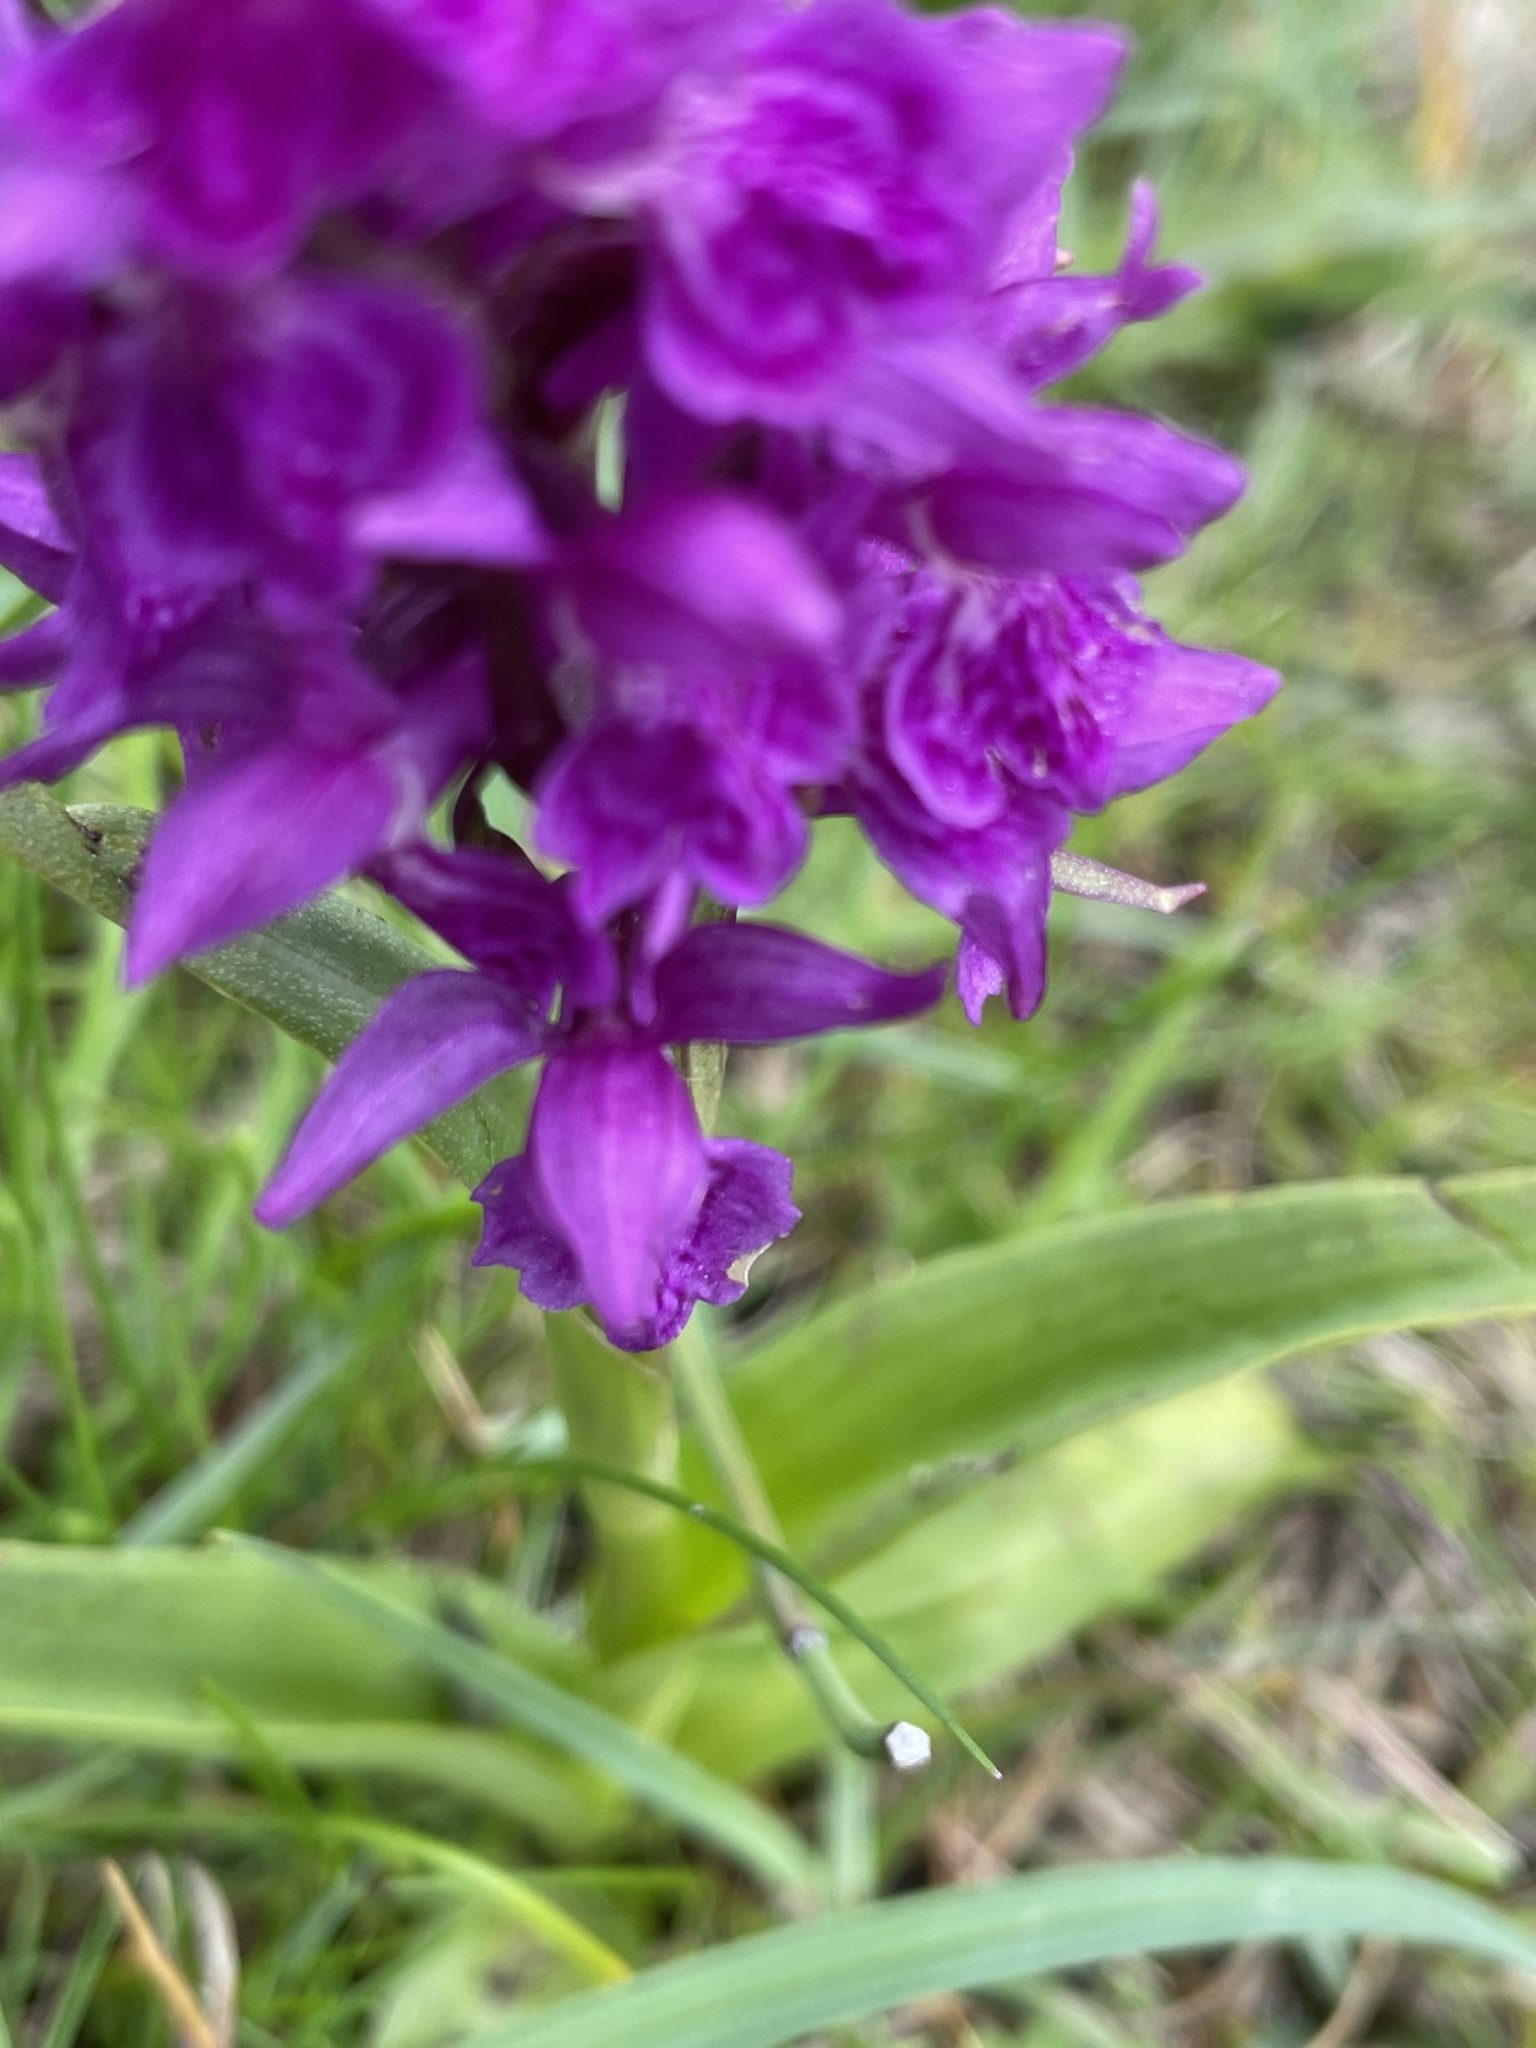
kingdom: Plantae
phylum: Tracheophyta
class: Liliopsida
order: Asparagales
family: Orchidaceae
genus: Dactylorhiza
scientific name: Dactylorhiza majalis
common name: Marsh orchid
